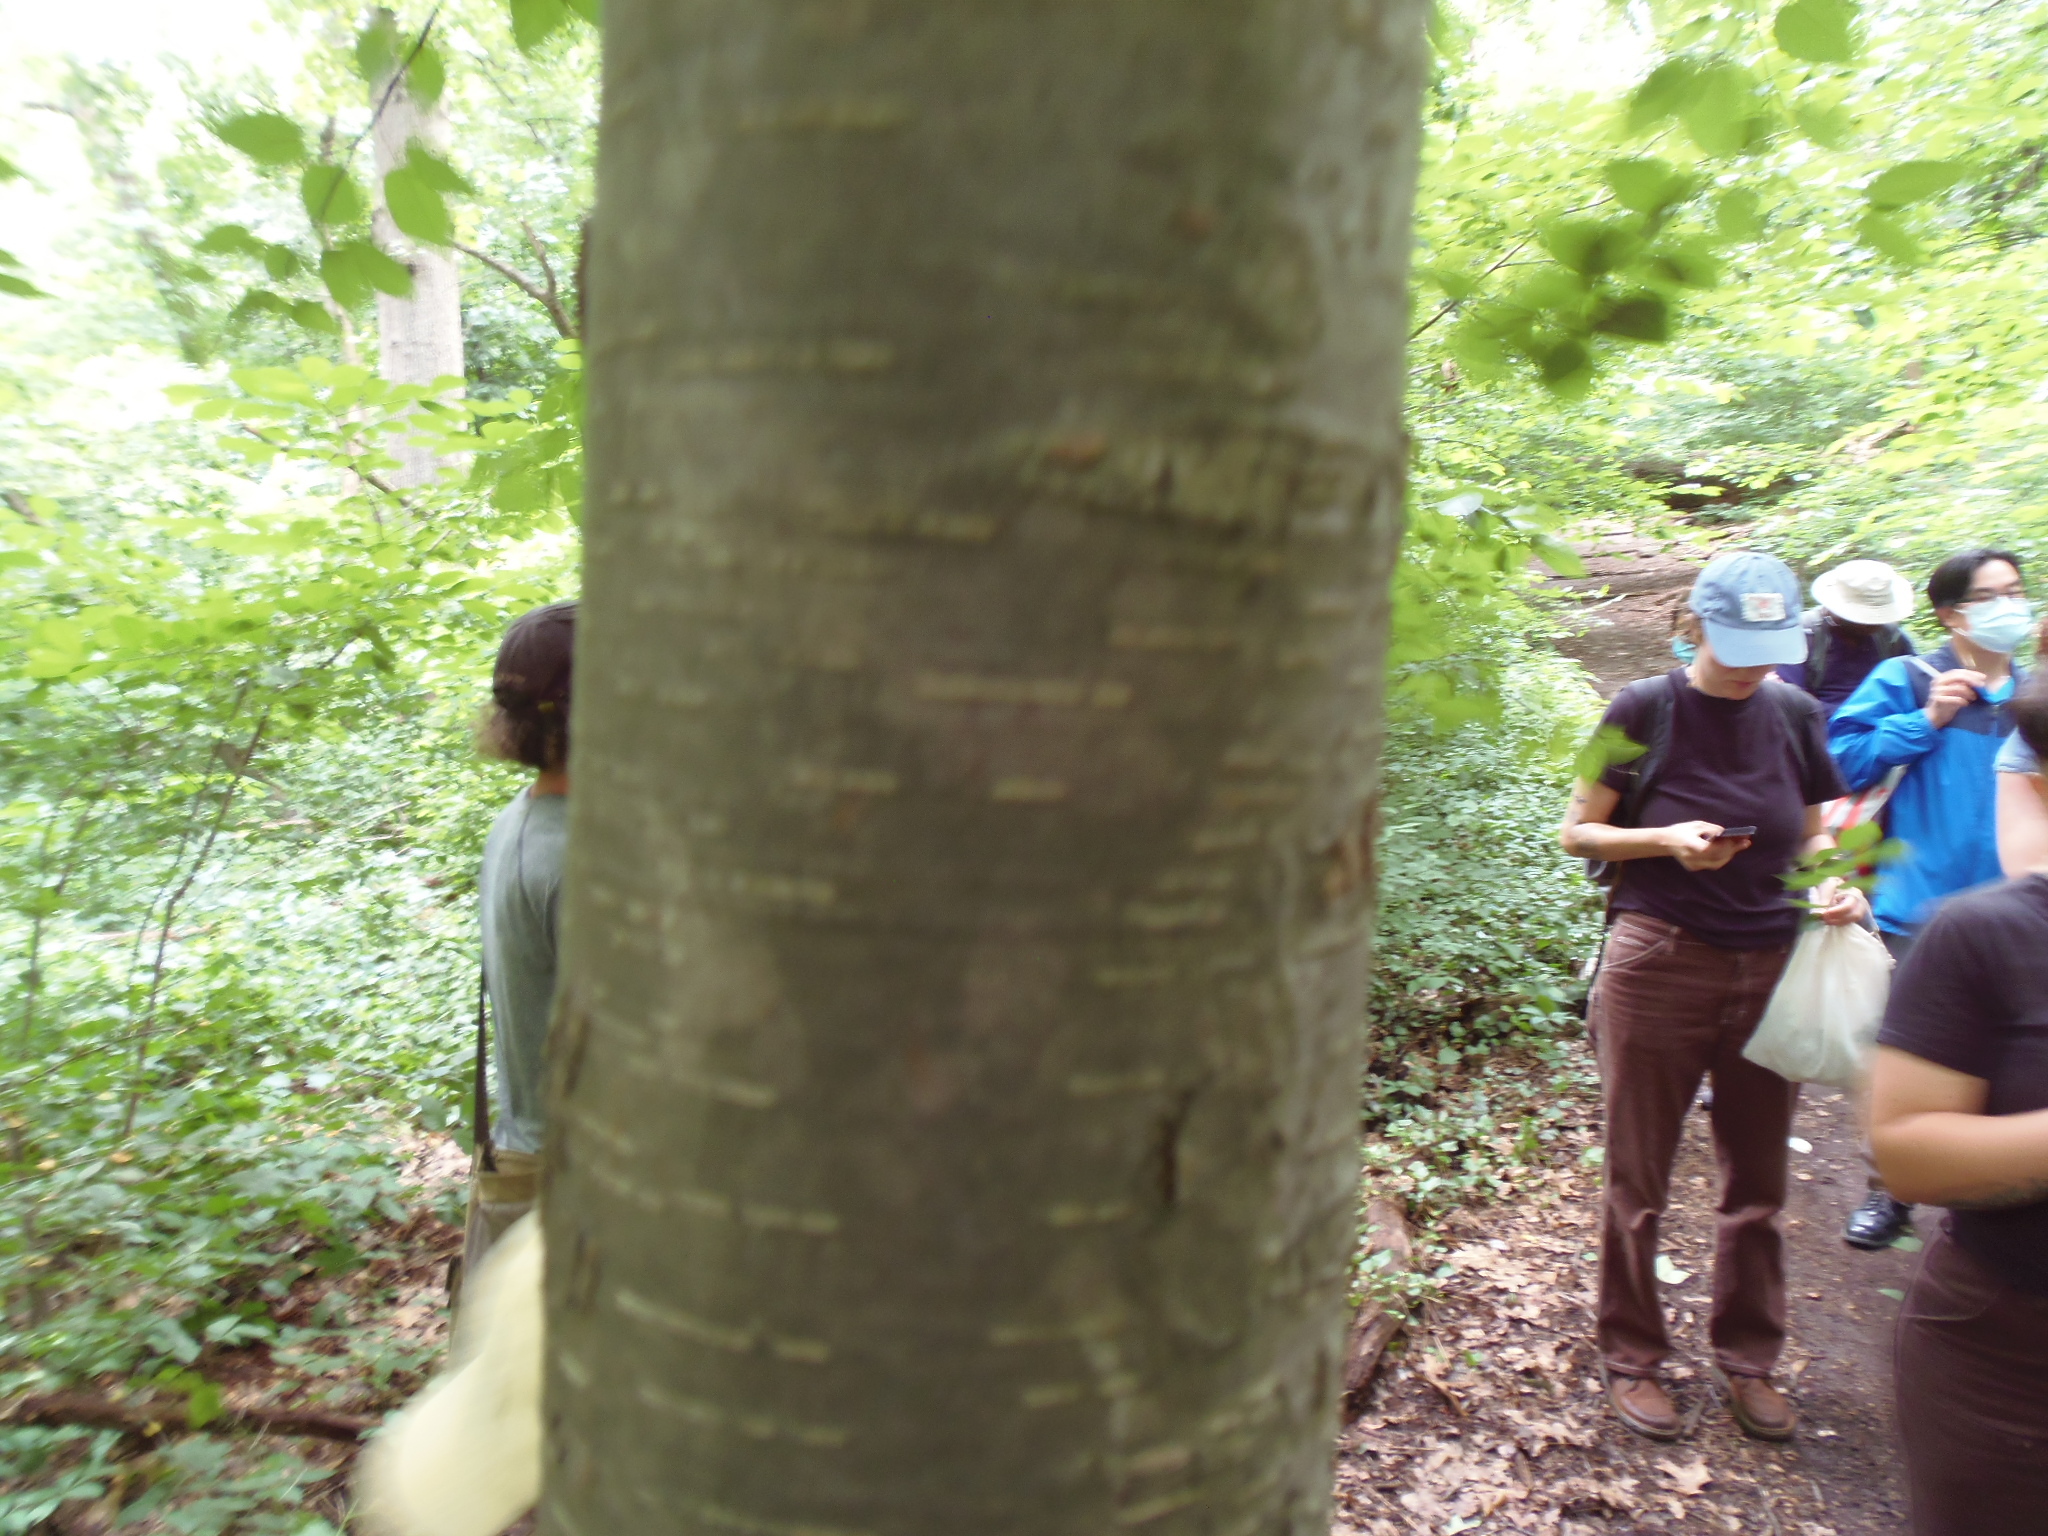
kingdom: Plantae
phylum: Tracheophyta
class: Magnoliopsida
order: Fagales
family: Betulaceae
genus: Betula
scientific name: Betula lenta
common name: Black birch
